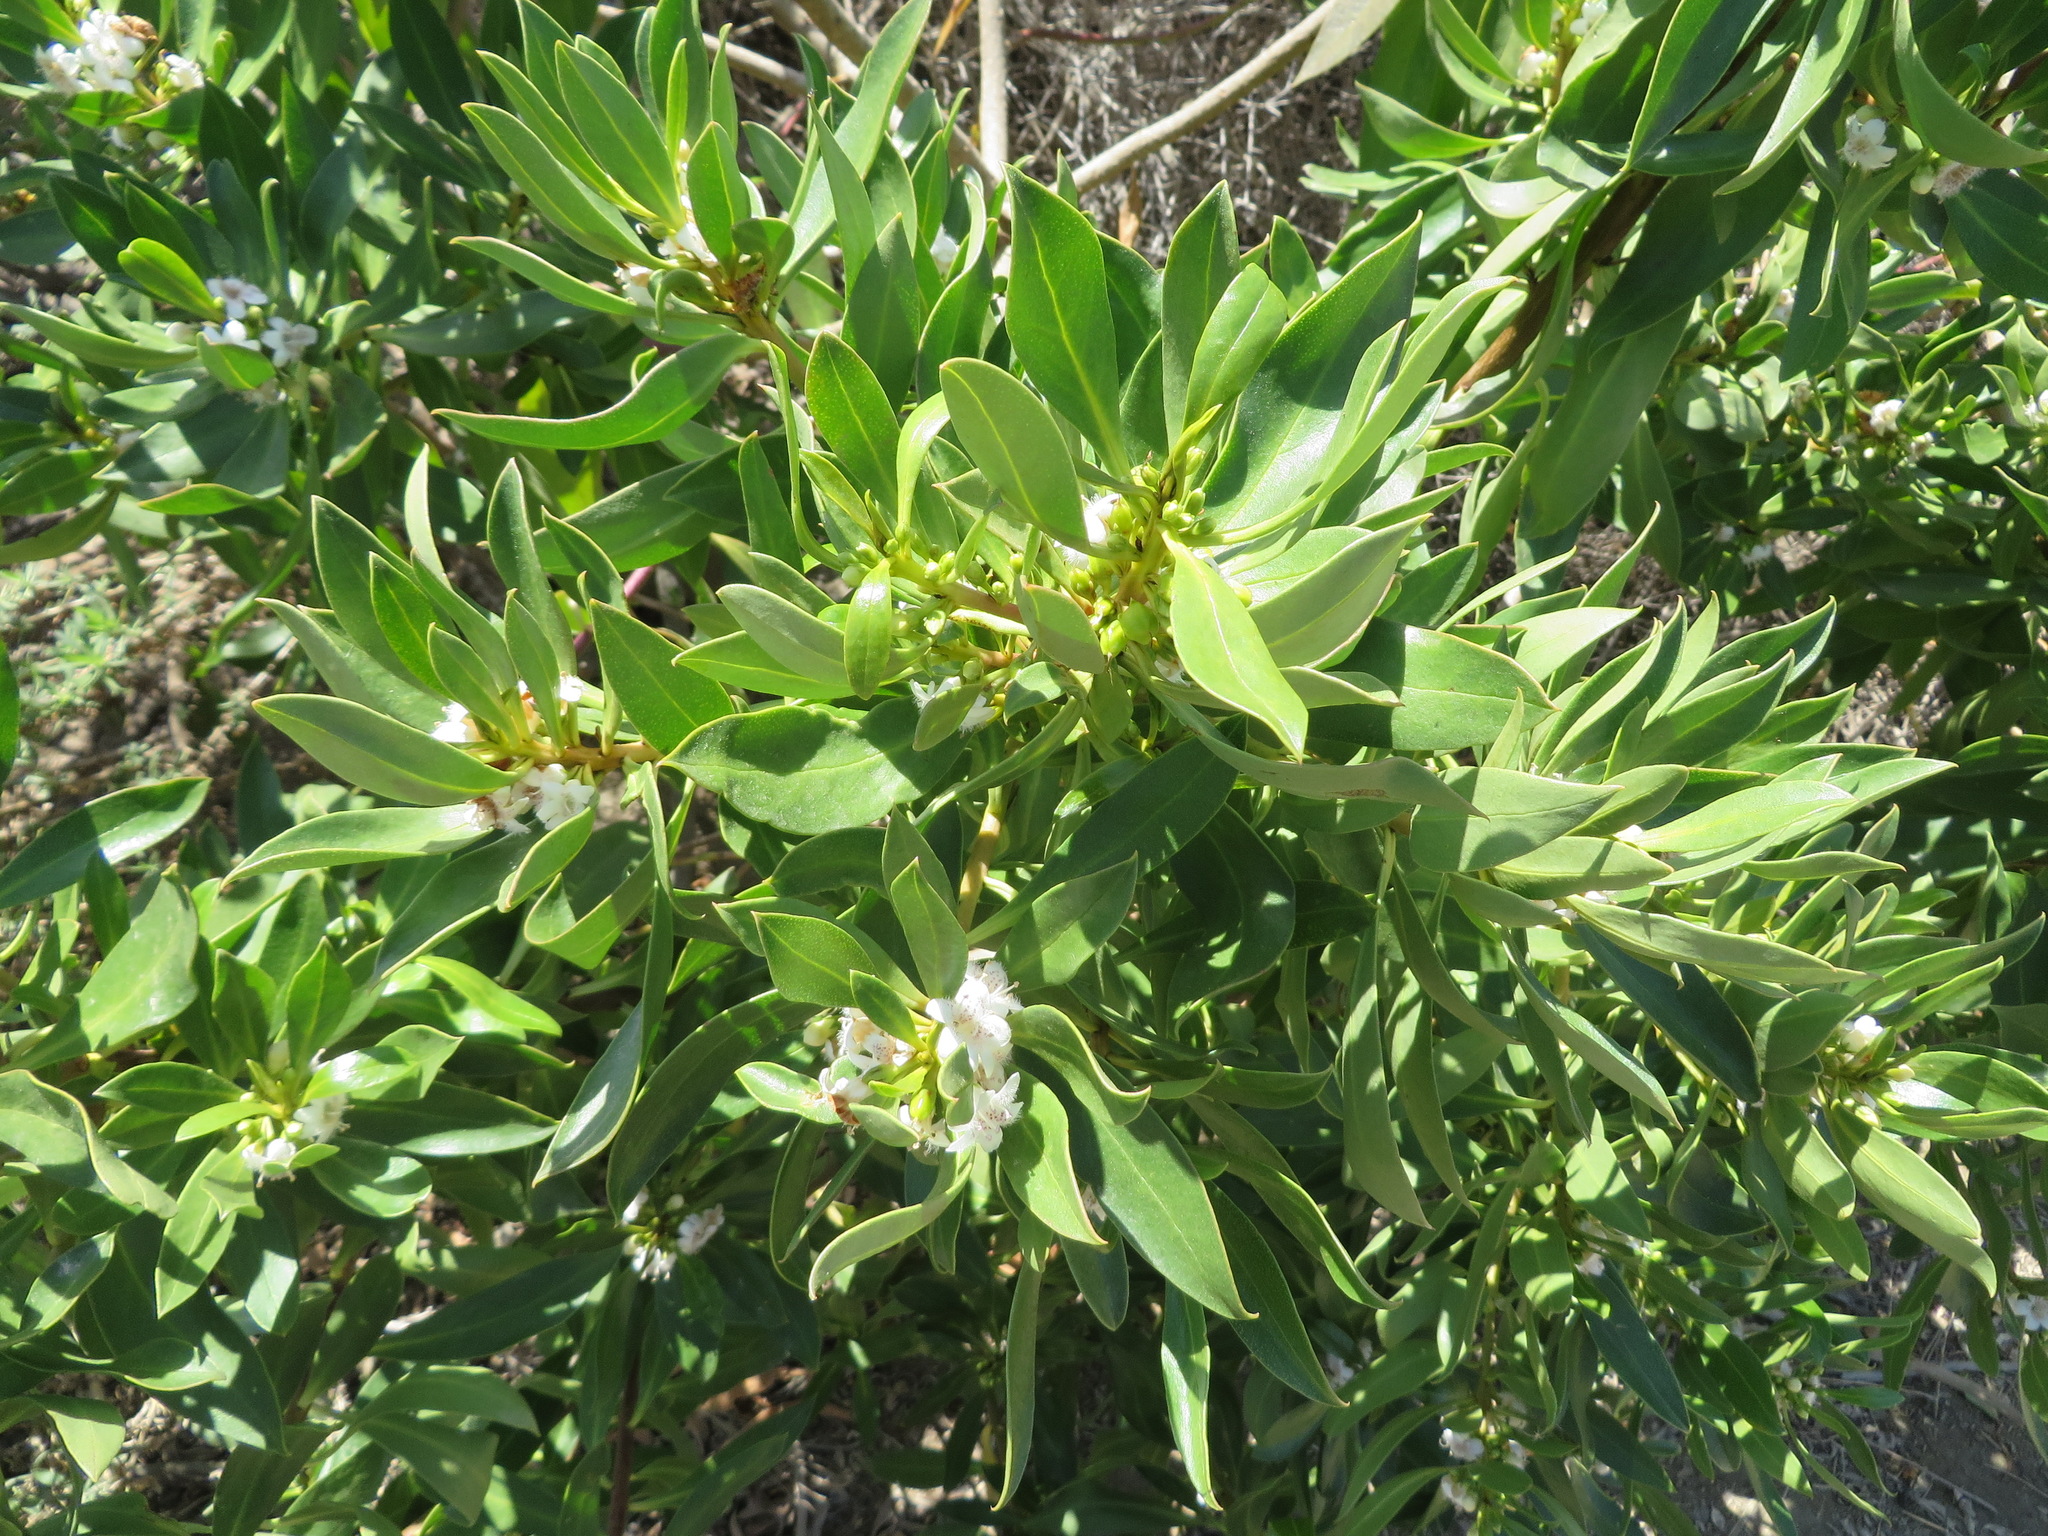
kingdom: Plantae
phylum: Tracheophyta
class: Magnoliopsida
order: Lamiales
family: Scrophulariaceae
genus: Myoporum
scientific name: Myoporum laetum
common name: Ngaio tree
